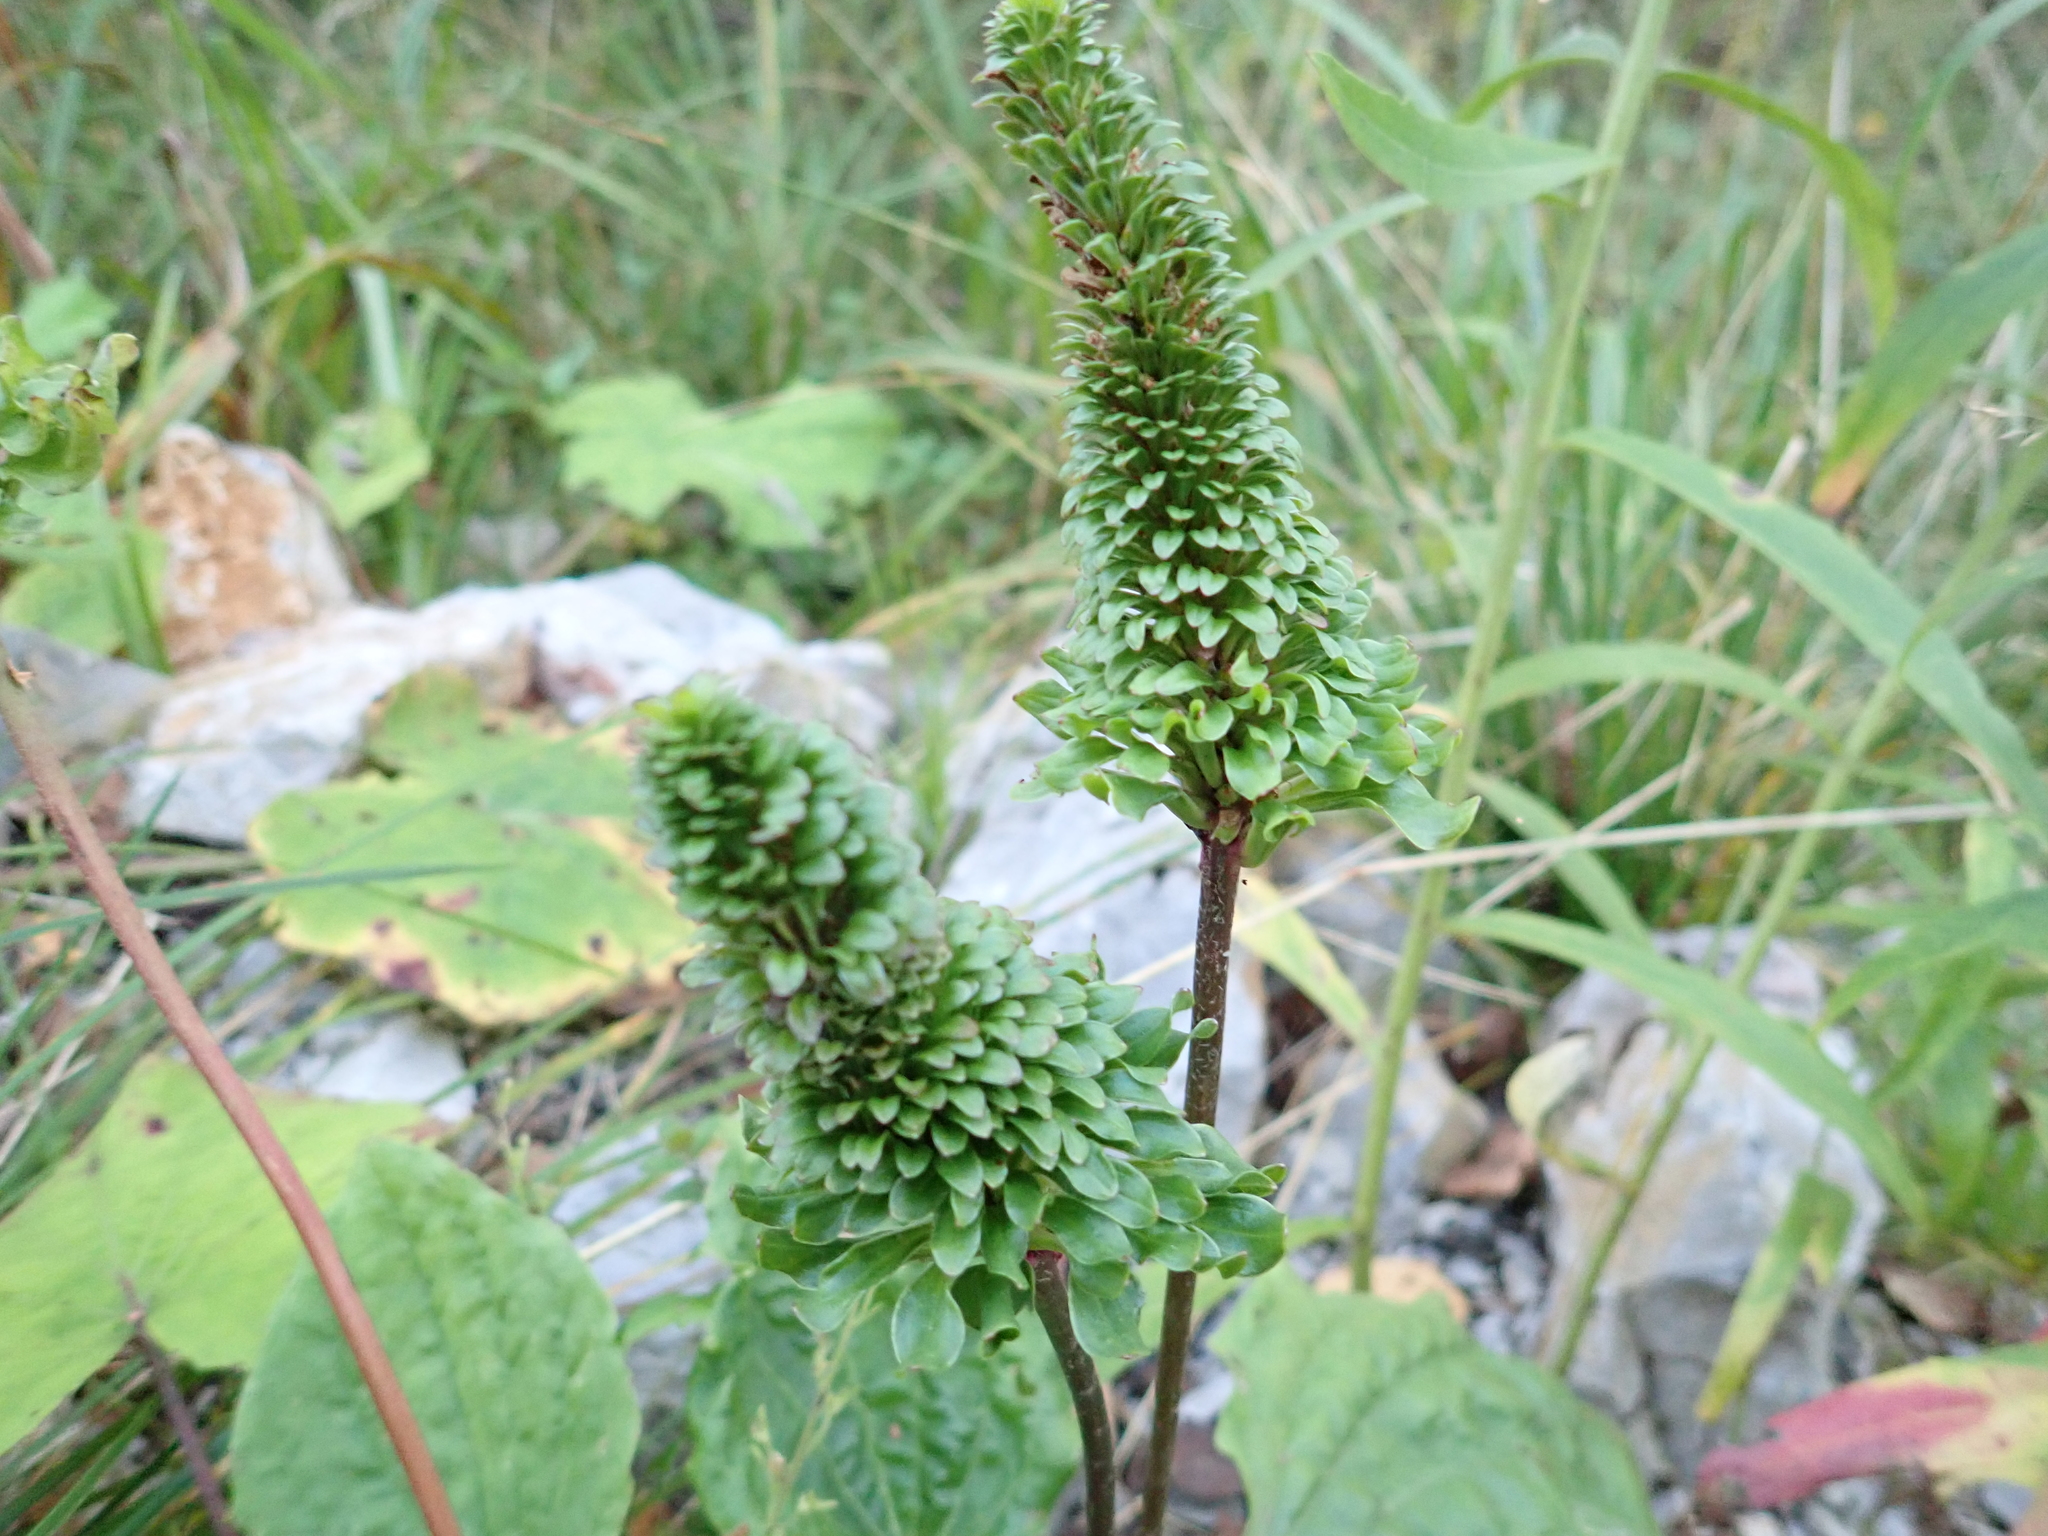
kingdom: Plantae
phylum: Tracheophyta
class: Magnoliopsida
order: Lamiales
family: Plantaginaceae
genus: Plantago
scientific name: Plantago major
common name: Common plantain
